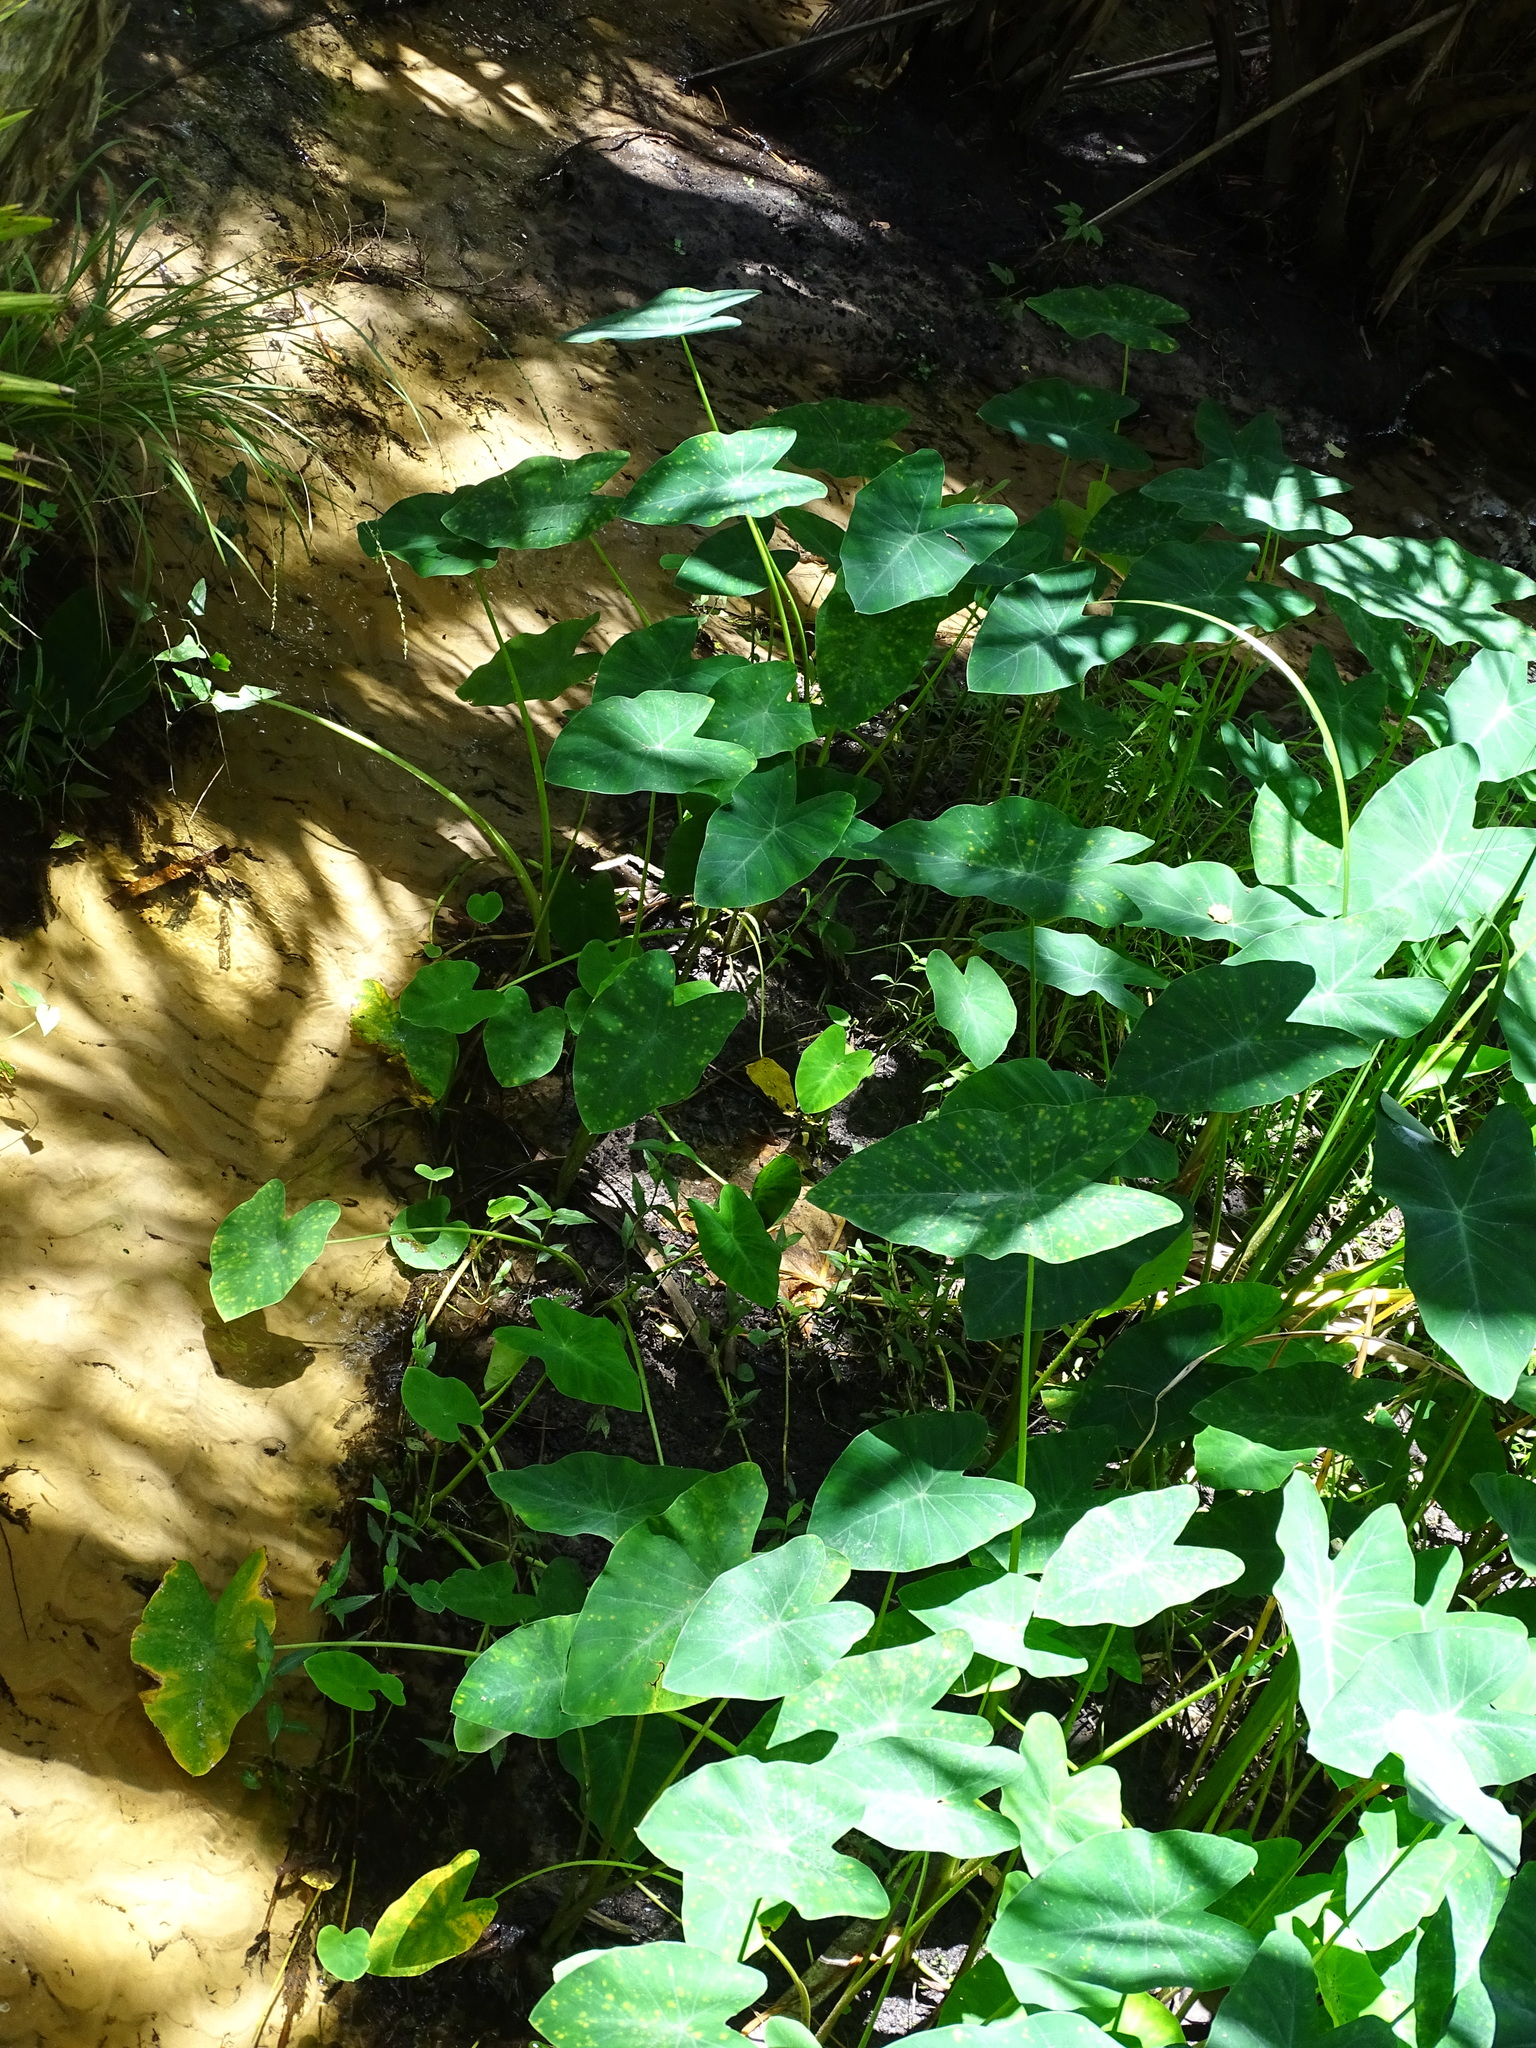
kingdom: Plantae
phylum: Tracheophyta
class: Liliopsida
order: Alismatales
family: Araceae
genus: Colocasia
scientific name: Colocasia esculenta
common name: Taro
